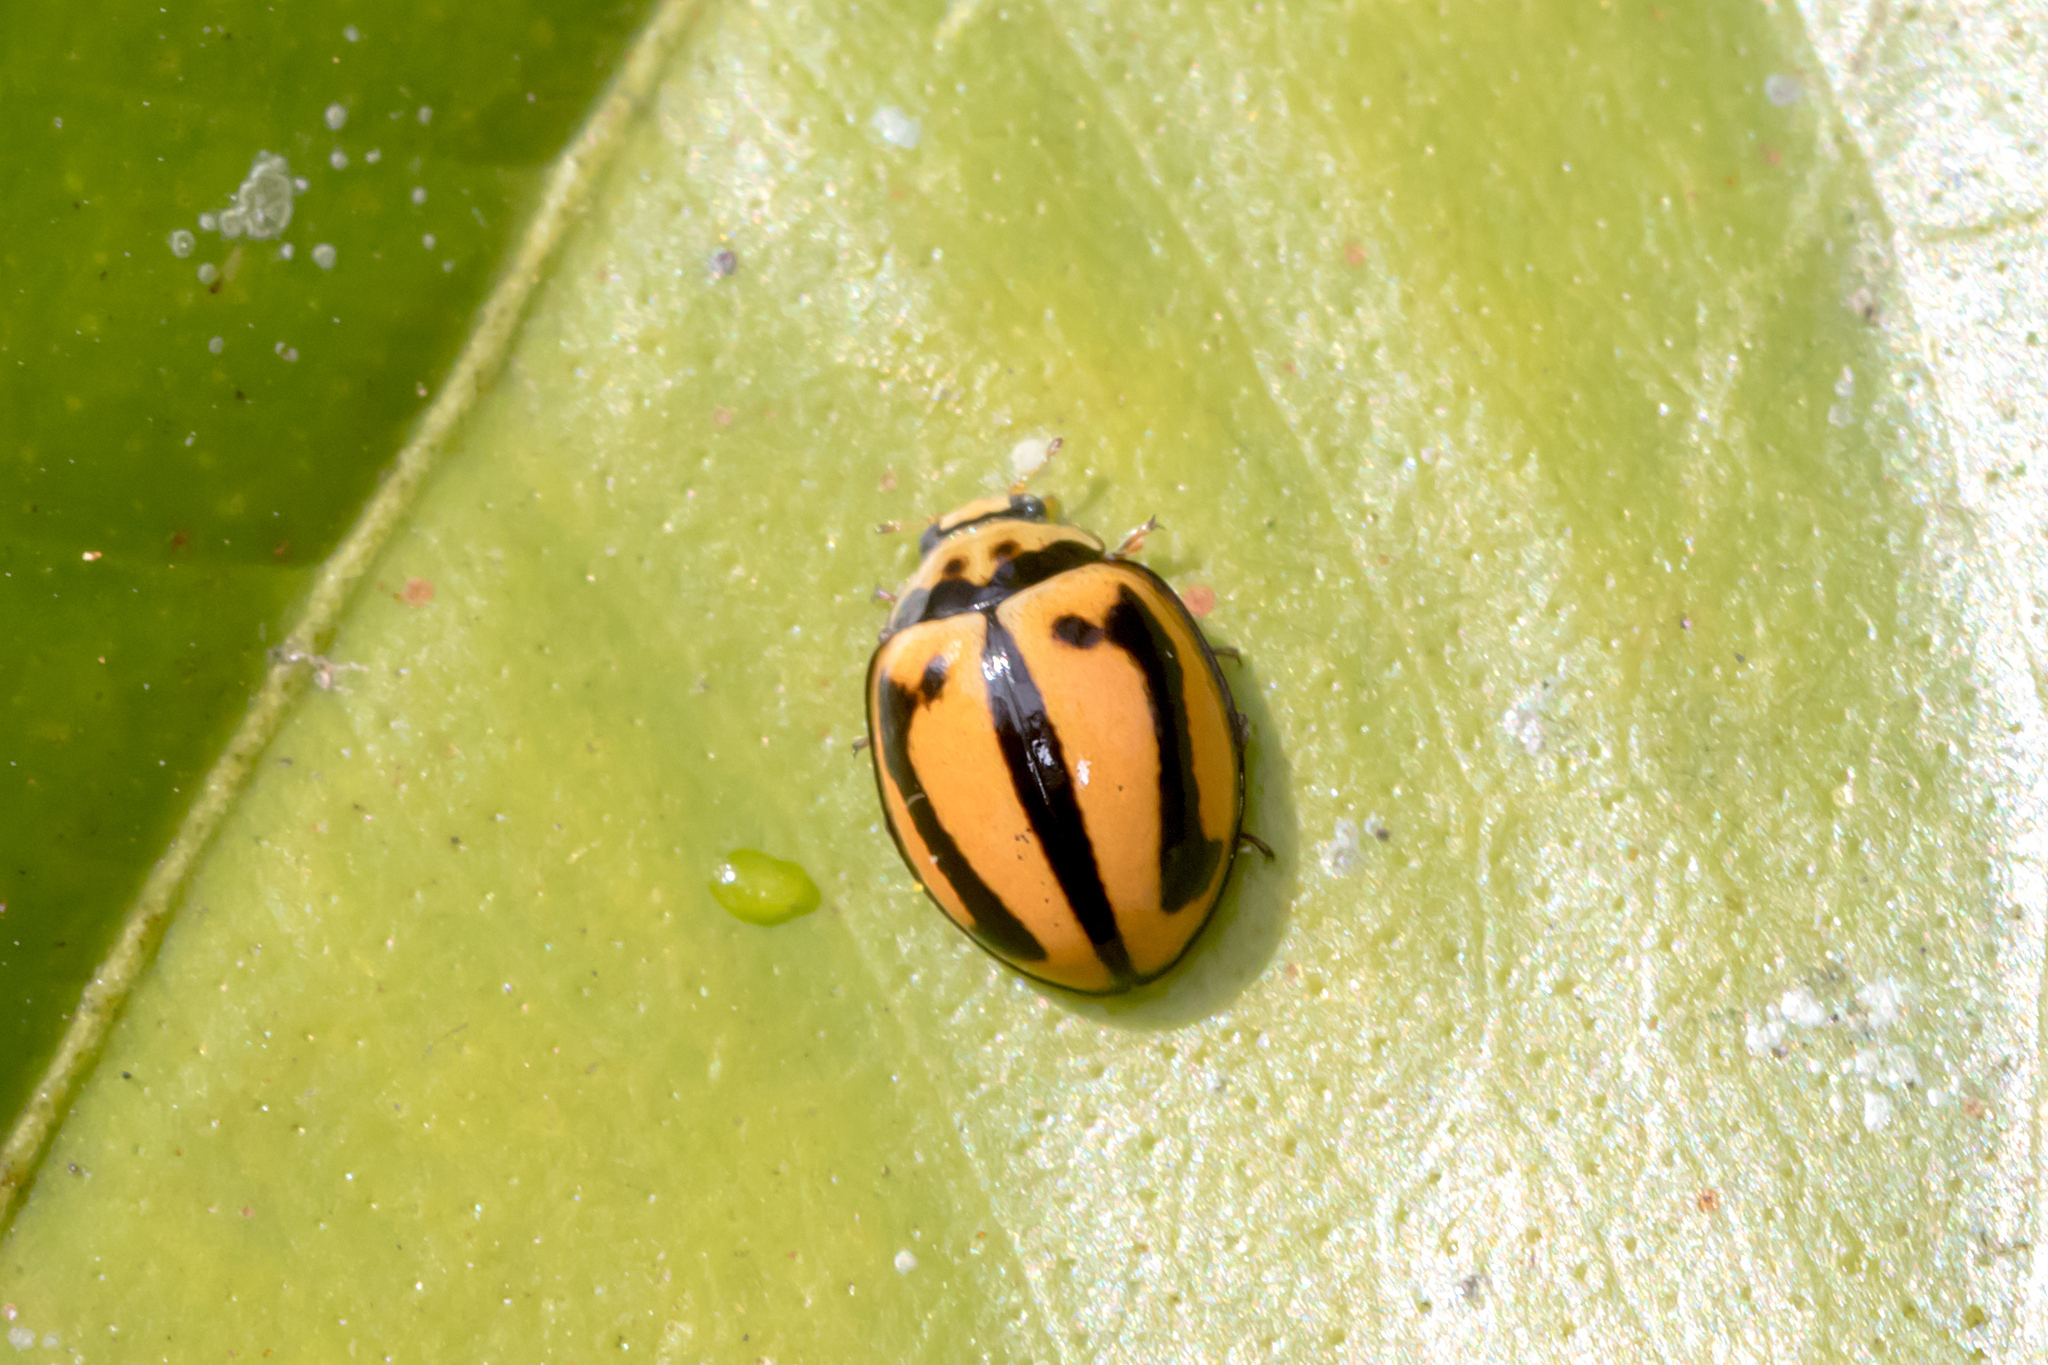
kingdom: Animalia
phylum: Arthropoda
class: Insecta
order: Coleoptera
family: Coccinellidae
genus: Micraspis
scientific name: Micraspis frenata
